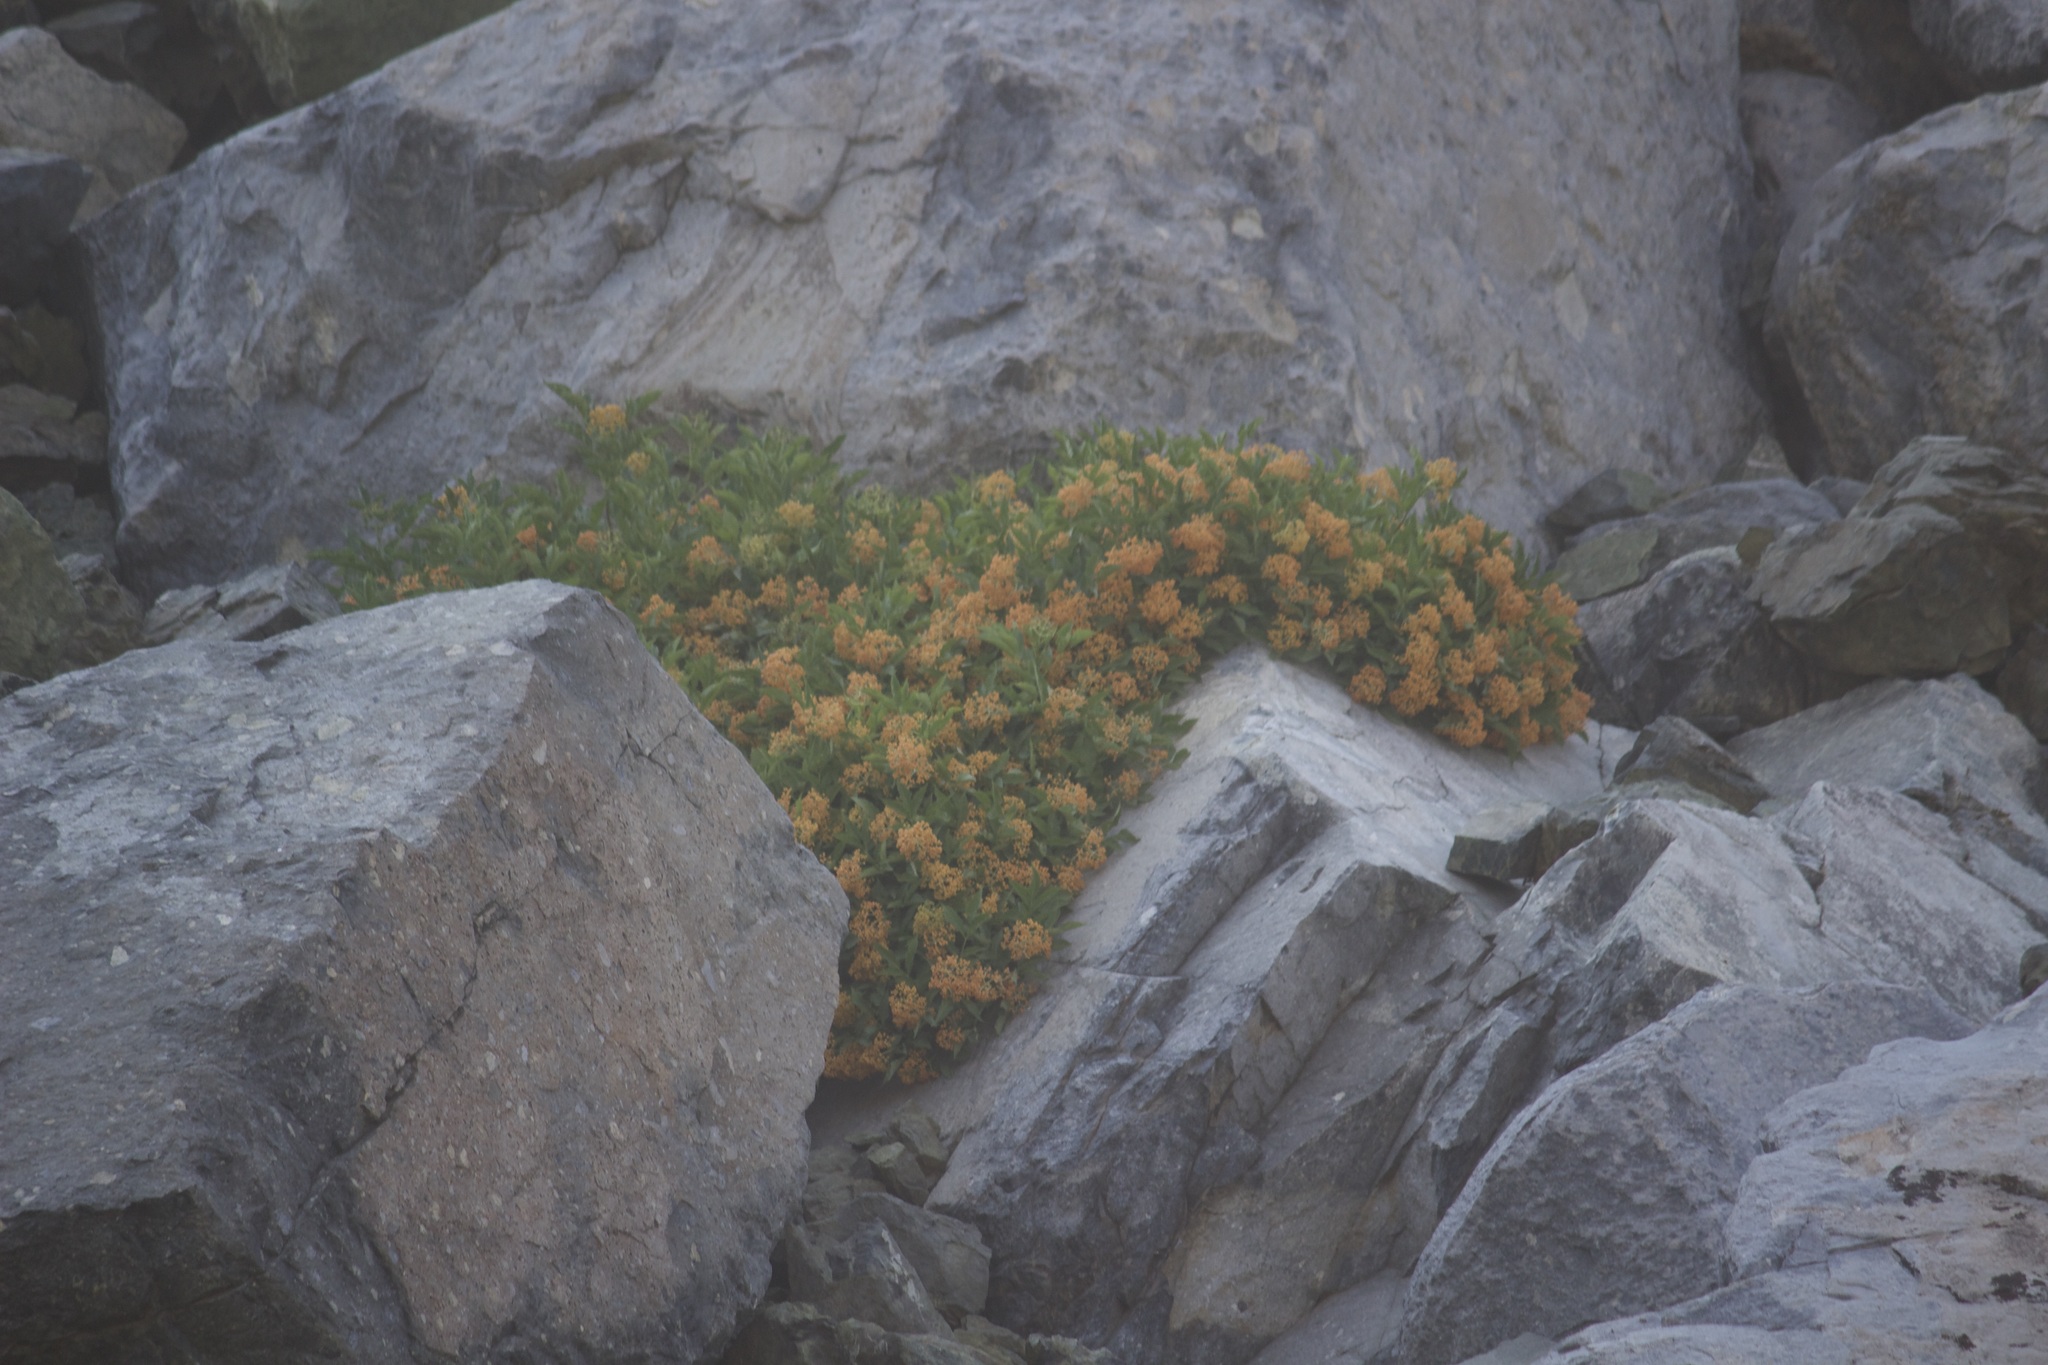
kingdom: Plantae
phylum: Tracheophyta
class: Magnoliopsida
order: Dipsacales
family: Viburnaceae
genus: Sambucus
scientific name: Sambucus racemosa
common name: Red-berried elder
